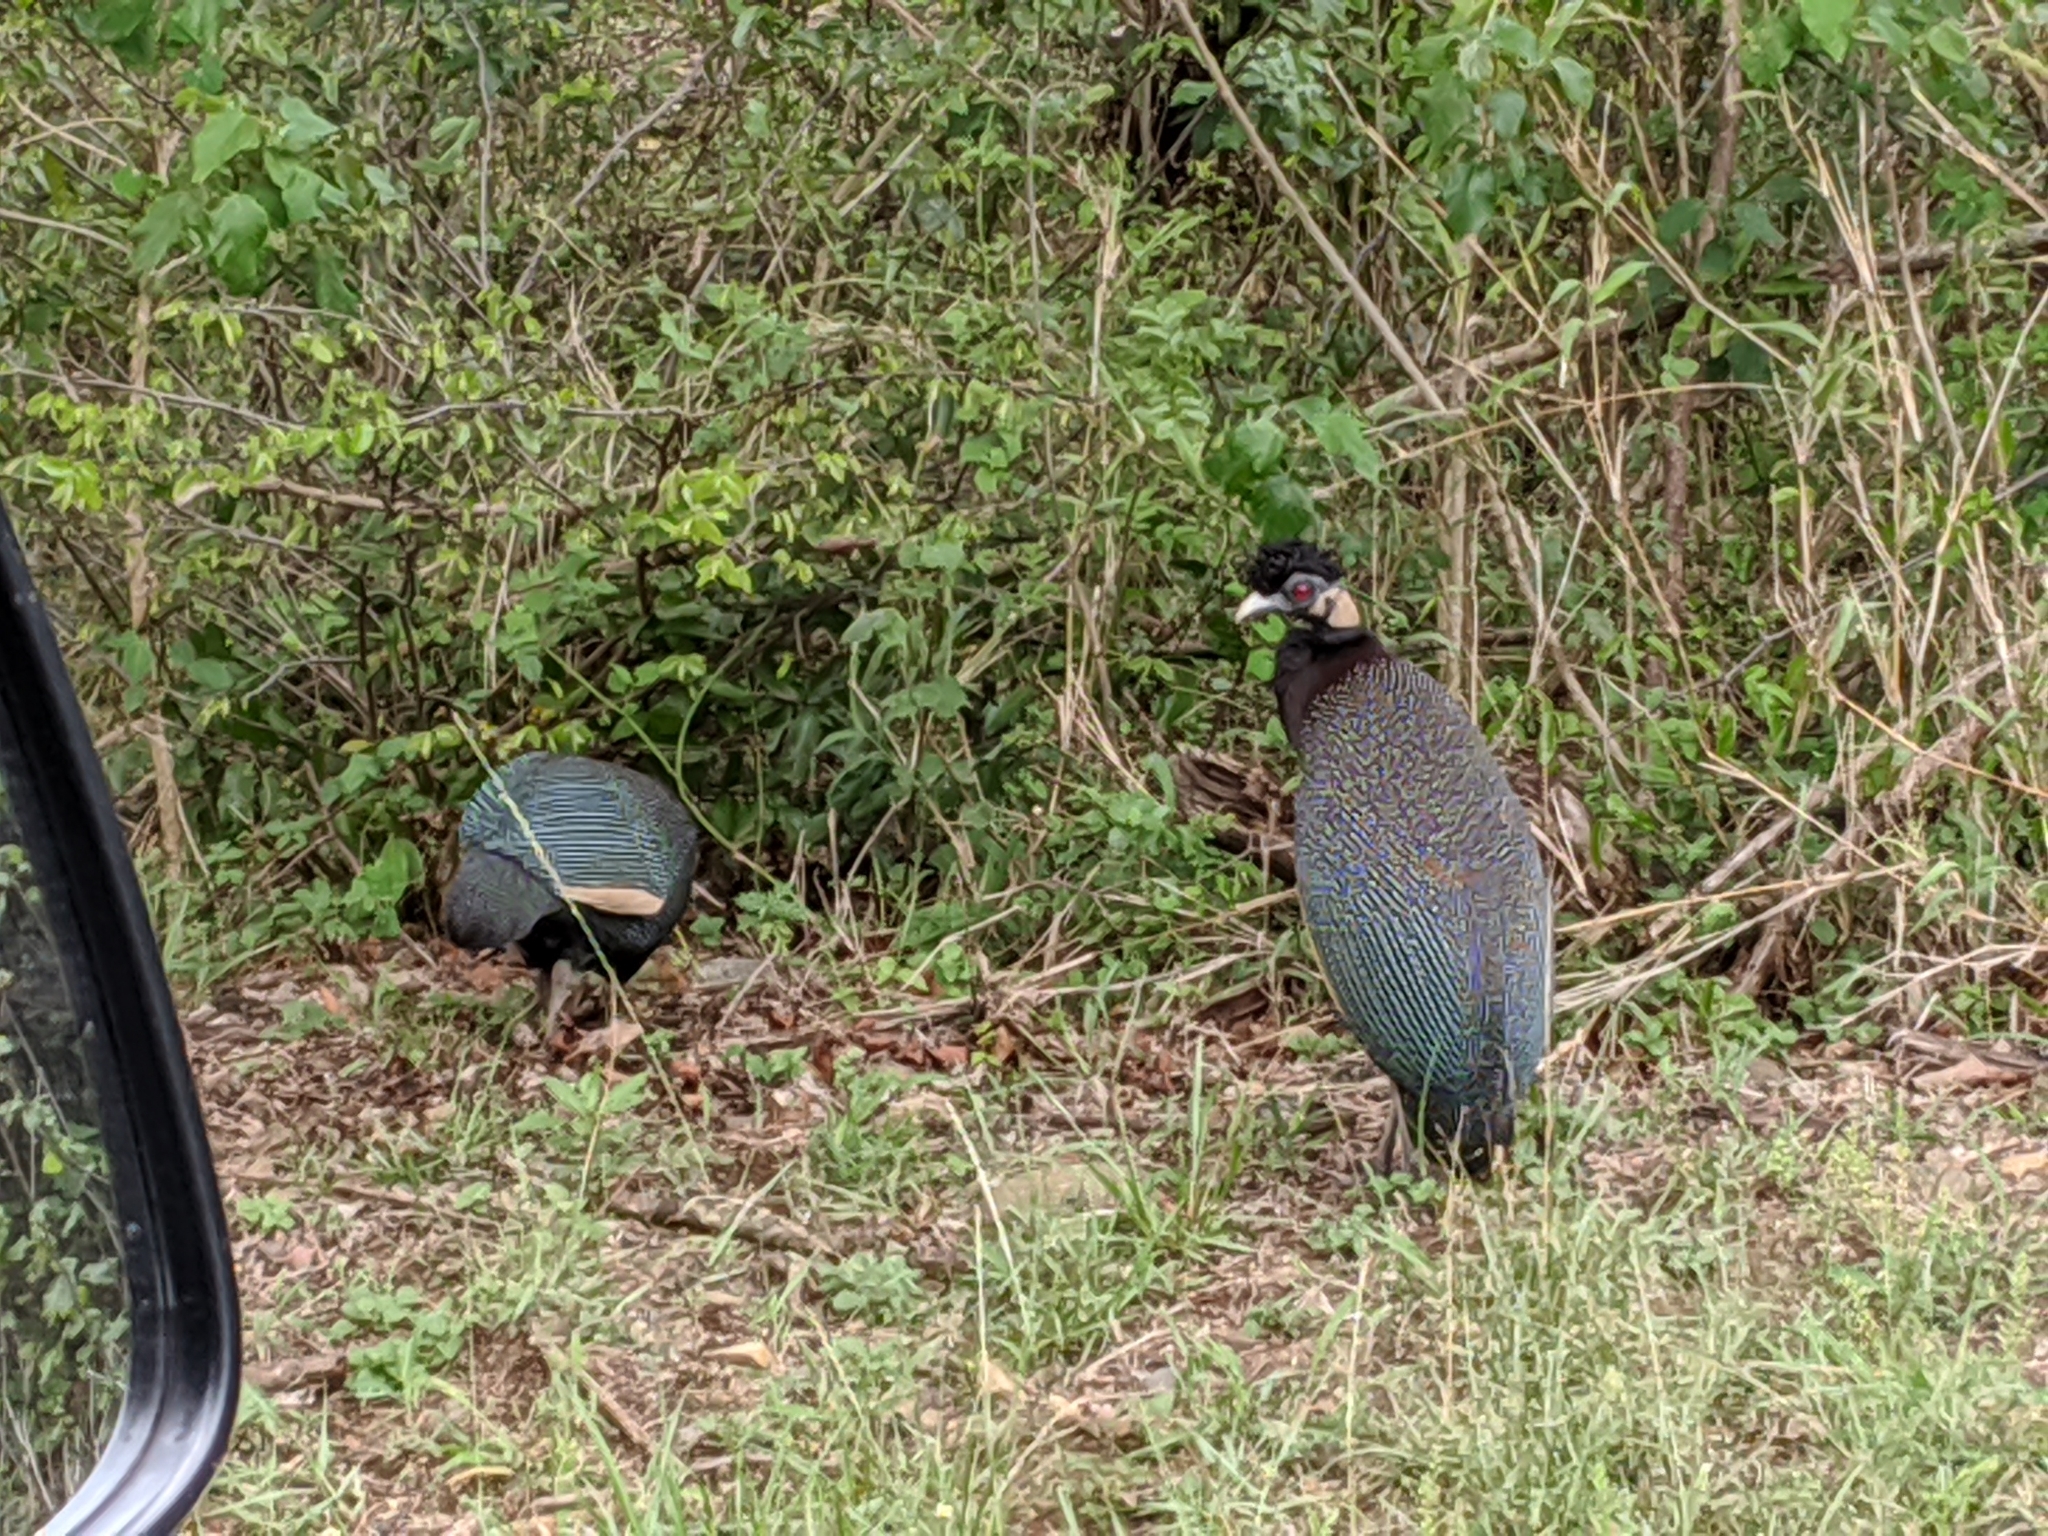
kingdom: Animalia
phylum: Chordata
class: Aves
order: Galliformes
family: Numididae
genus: Guttera
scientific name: Guttera pucherani
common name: Crested guineafowl
